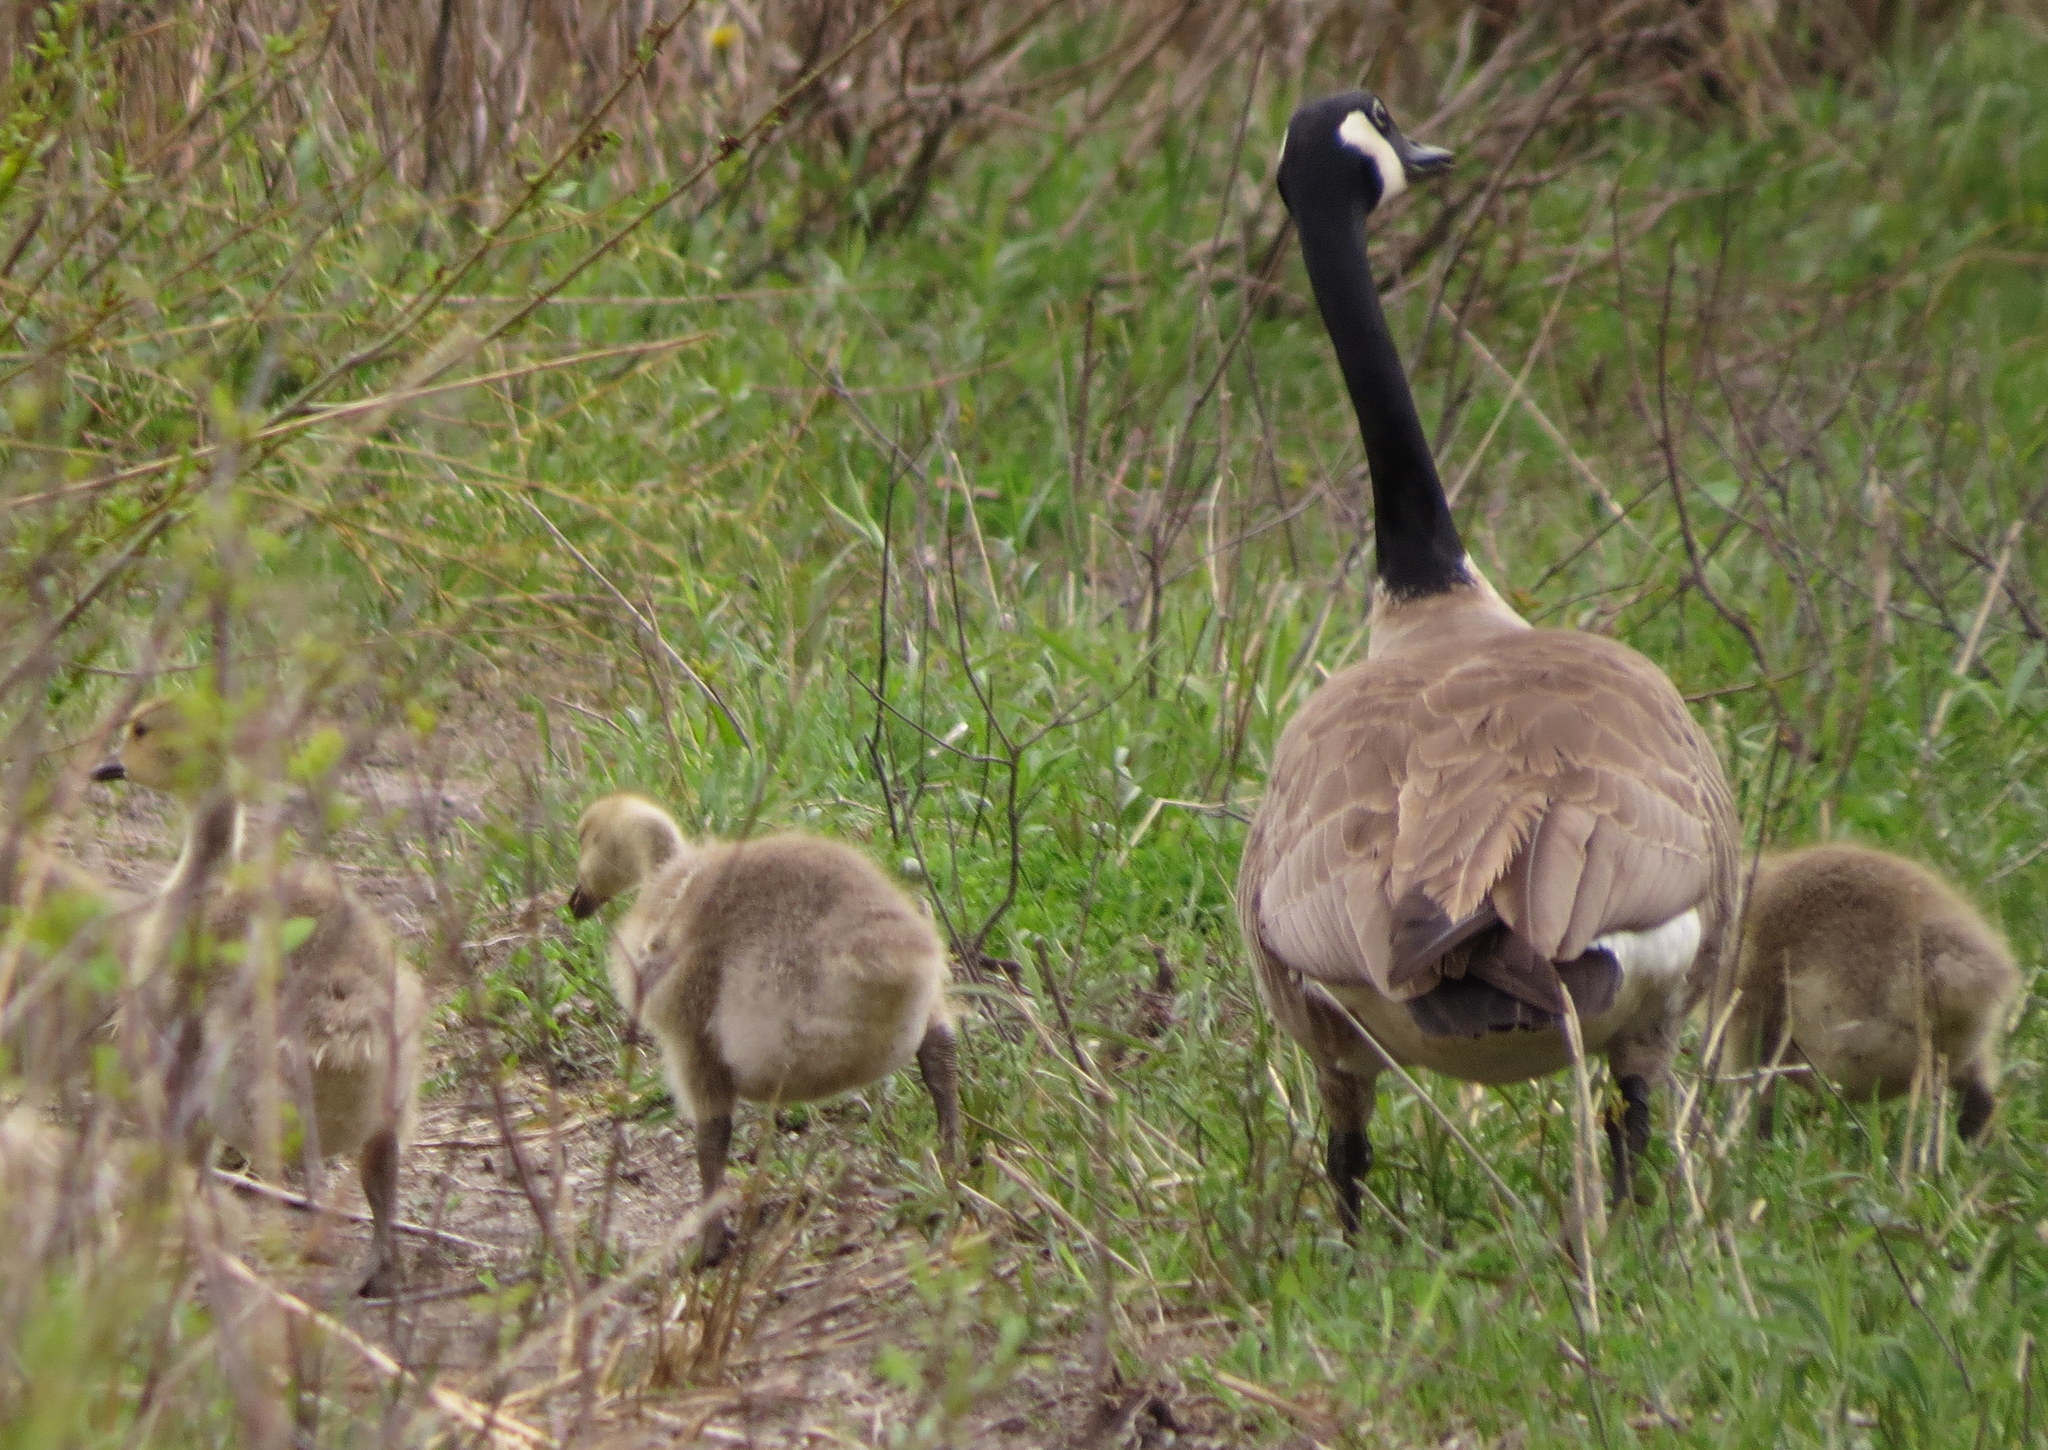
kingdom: Animalia
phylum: Chordata
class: Aves
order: Anseriformes
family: Anatidae
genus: Branta
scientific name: Branta canadensis
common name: Canada goose
